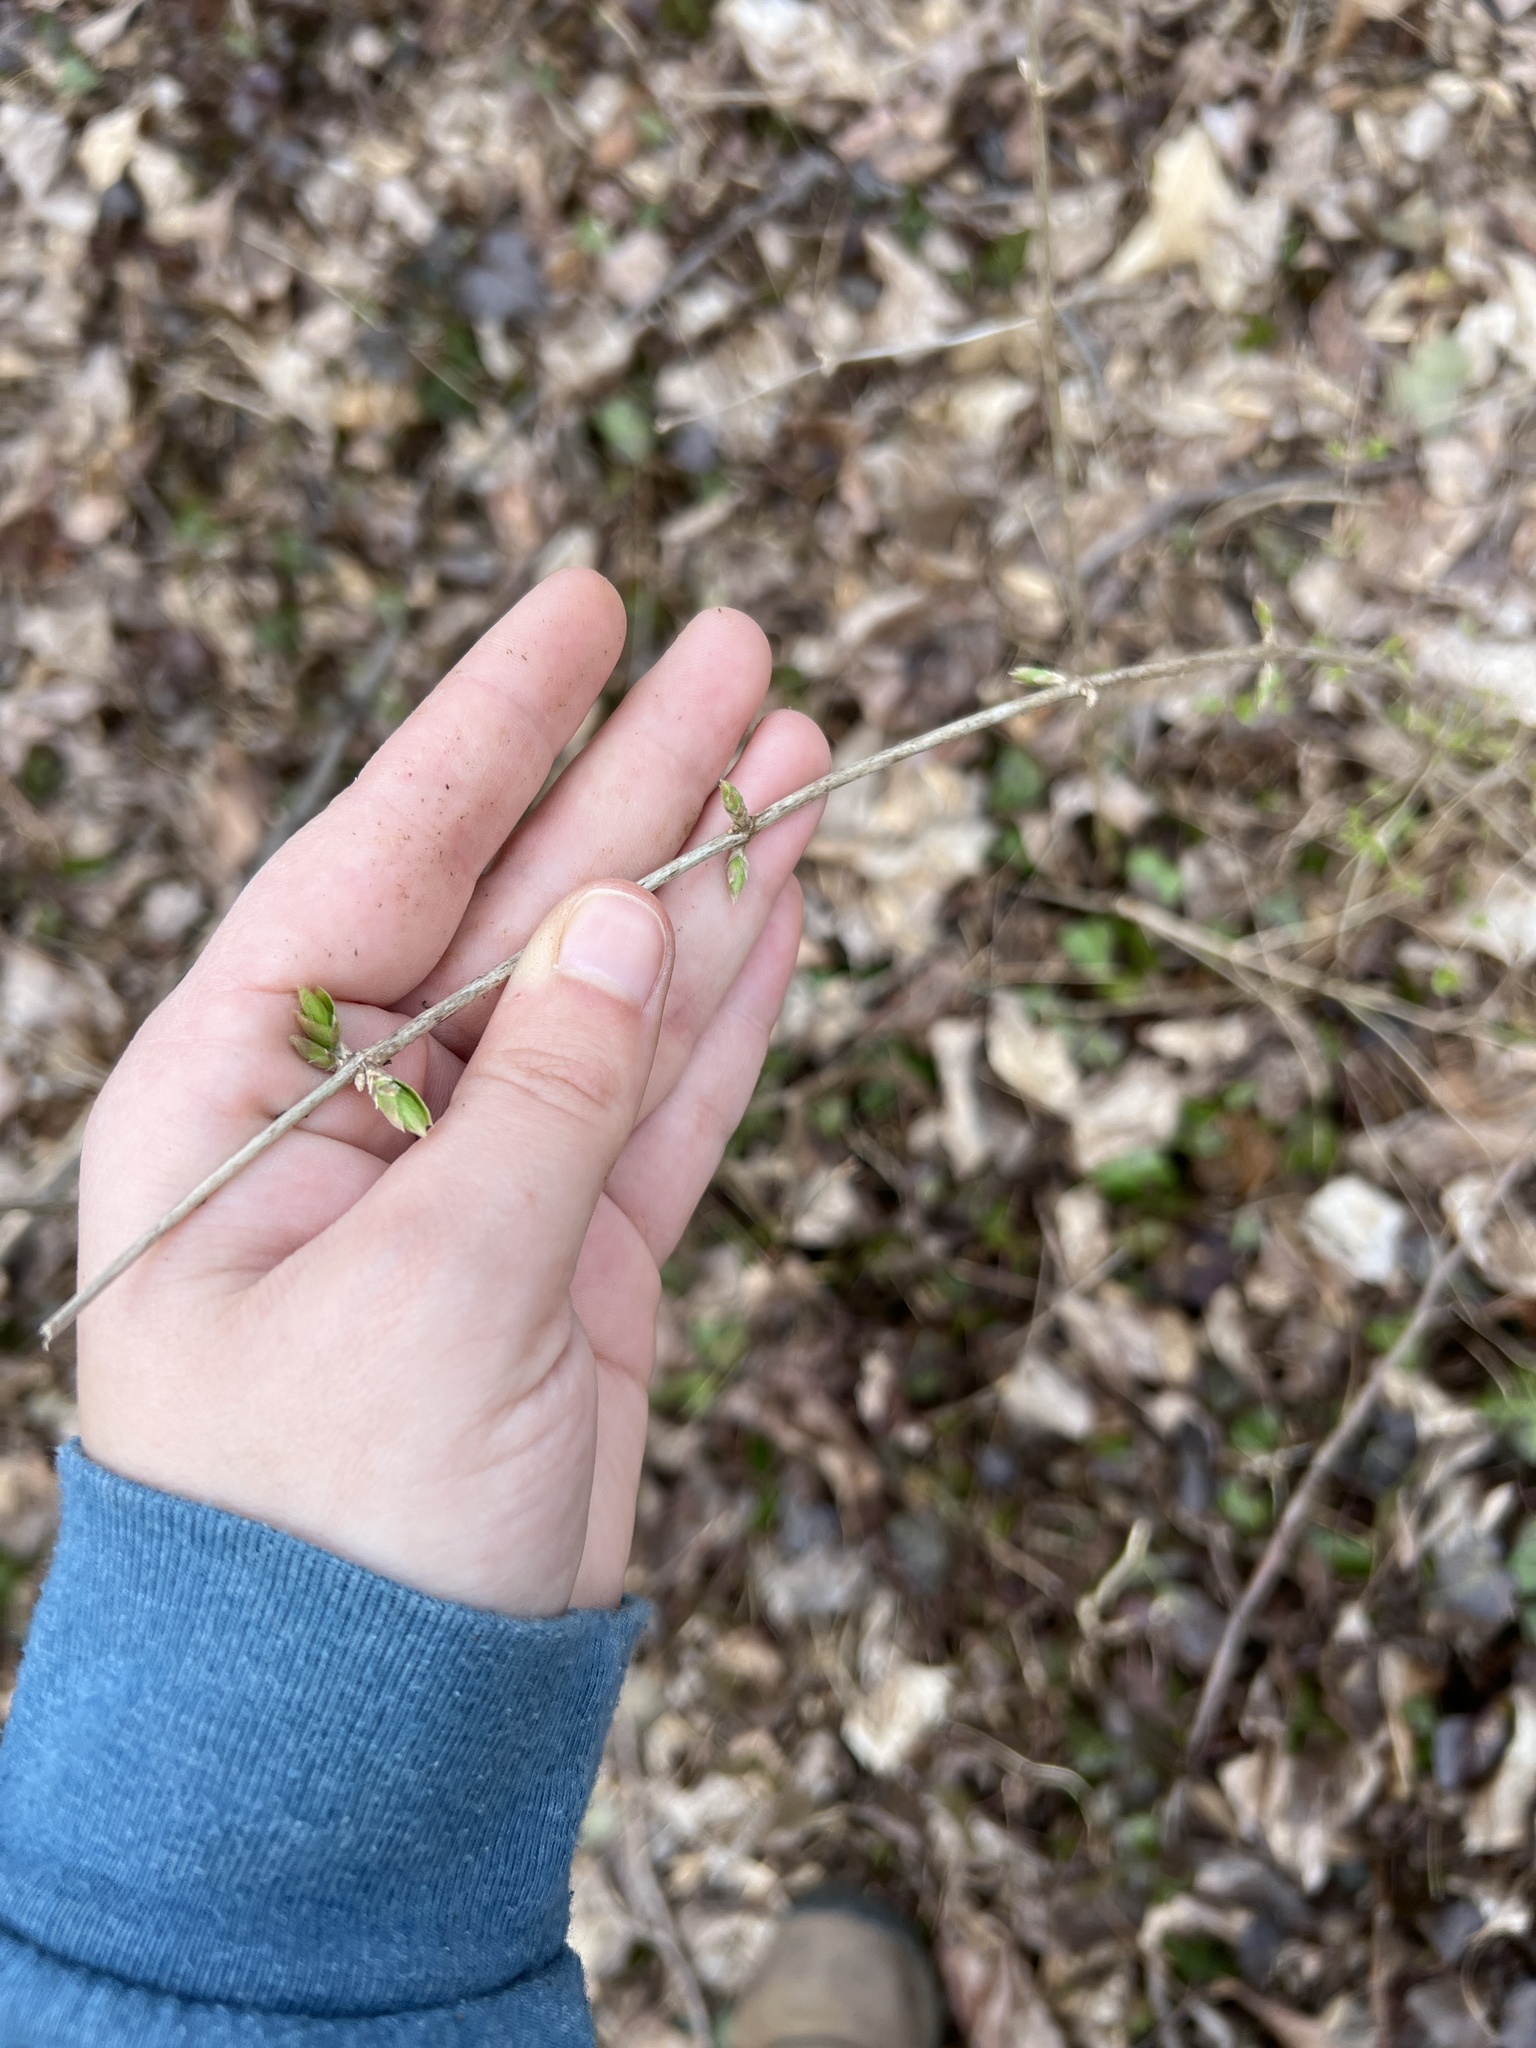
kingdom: Plantae
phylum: Tracheophyta
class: Magnoliopsida
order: Dipsacales
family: Caprifoliaceae
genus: Lonicera
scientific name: Lonicera maackii
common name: Amur honeysuckle
